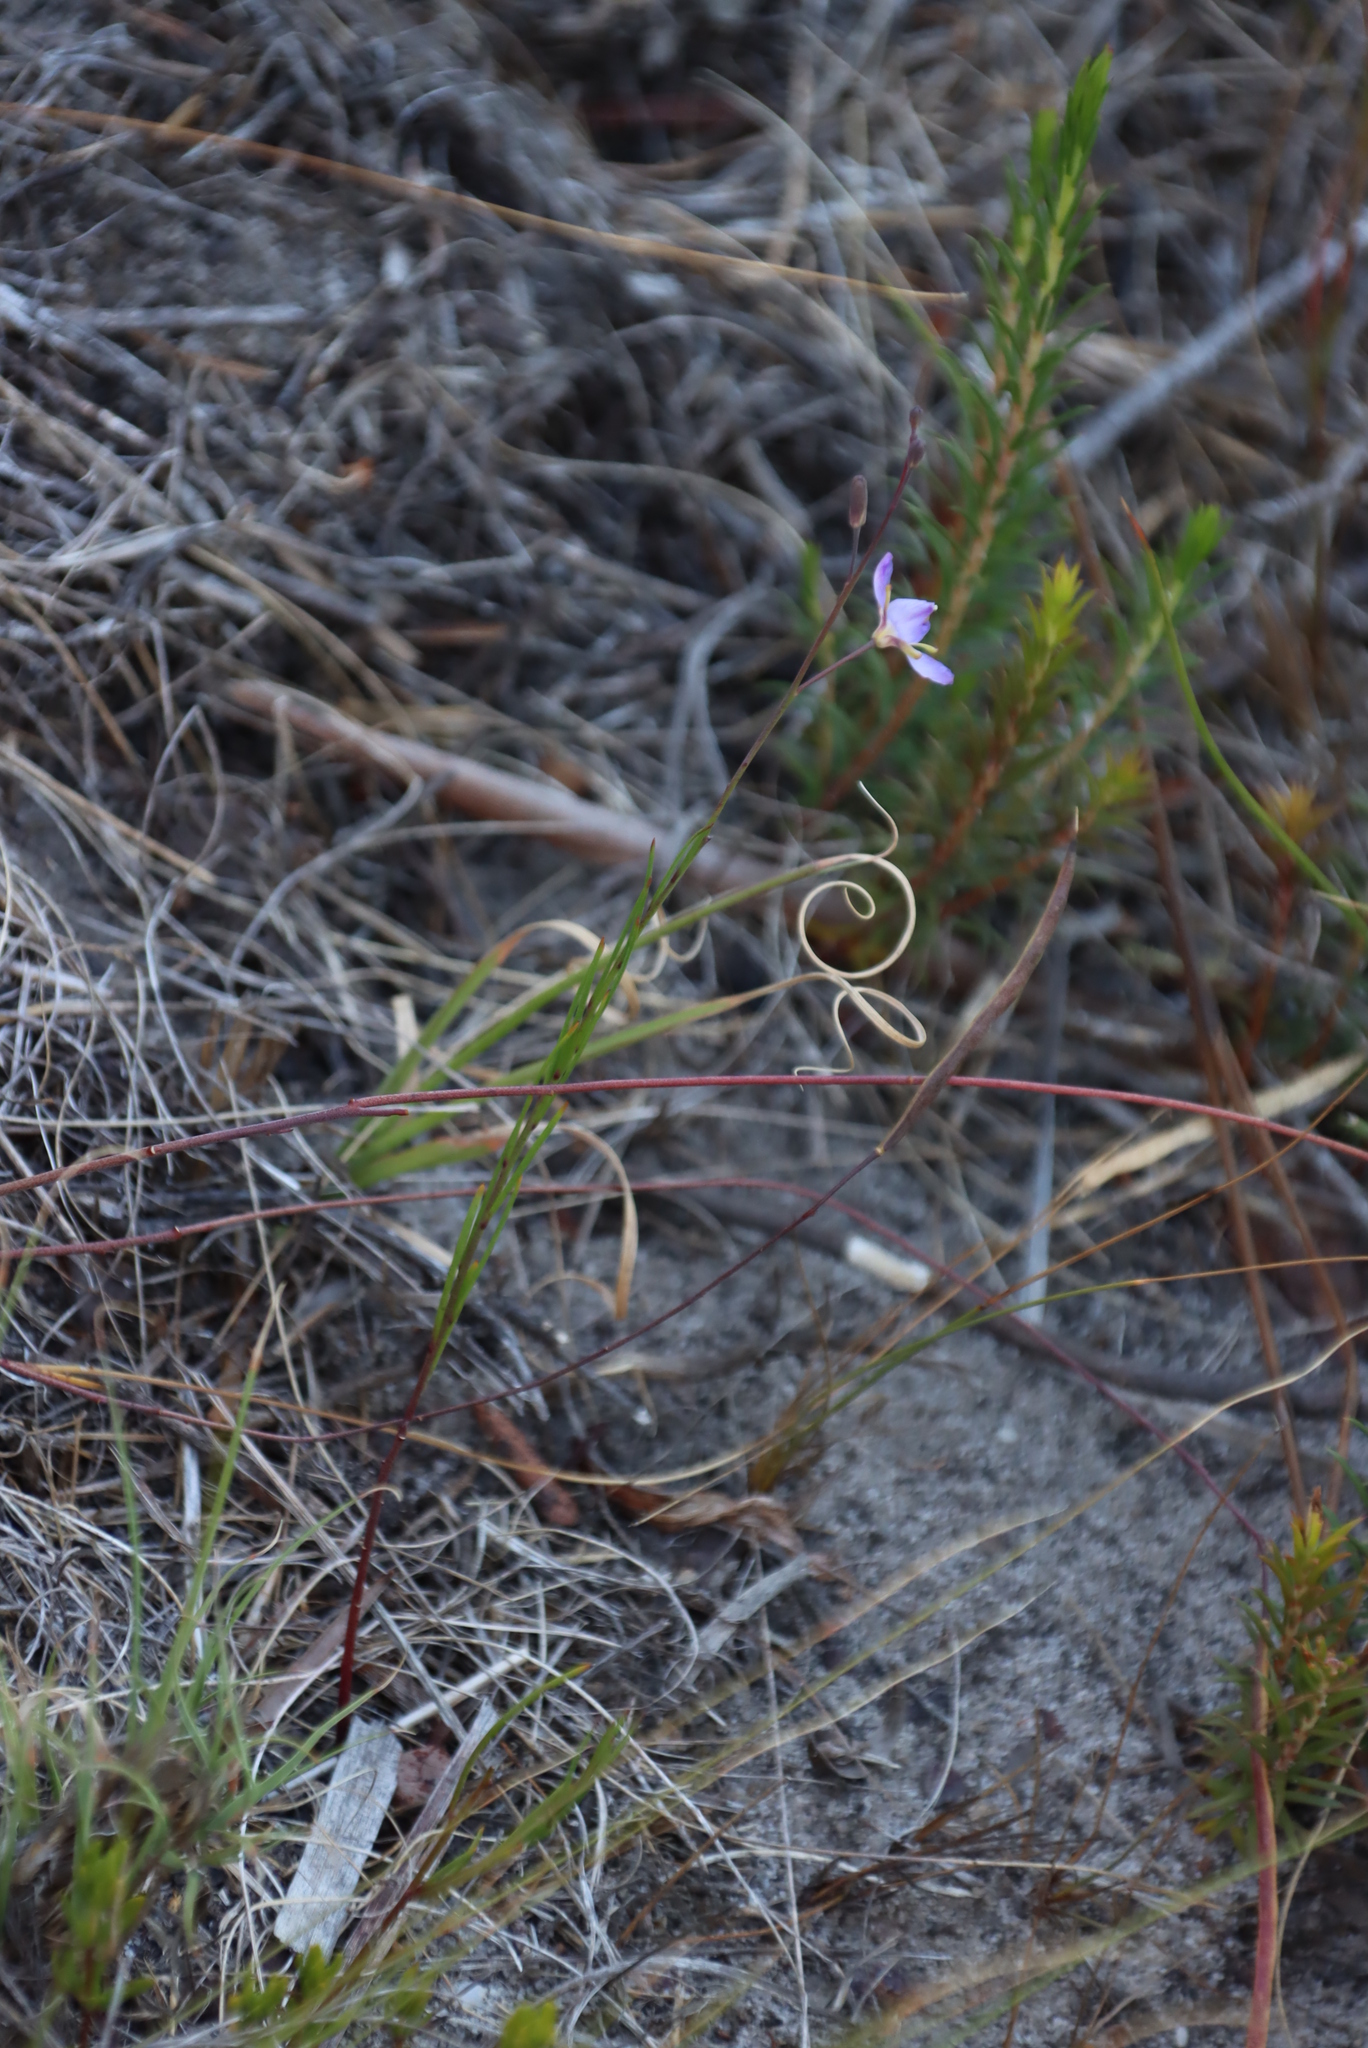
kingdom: Plantae
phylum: Tracheophyta
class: Magnoliopsida
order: Brassicales
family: Brassicaceae
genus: Heliophila
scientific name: Heliophila linearis
